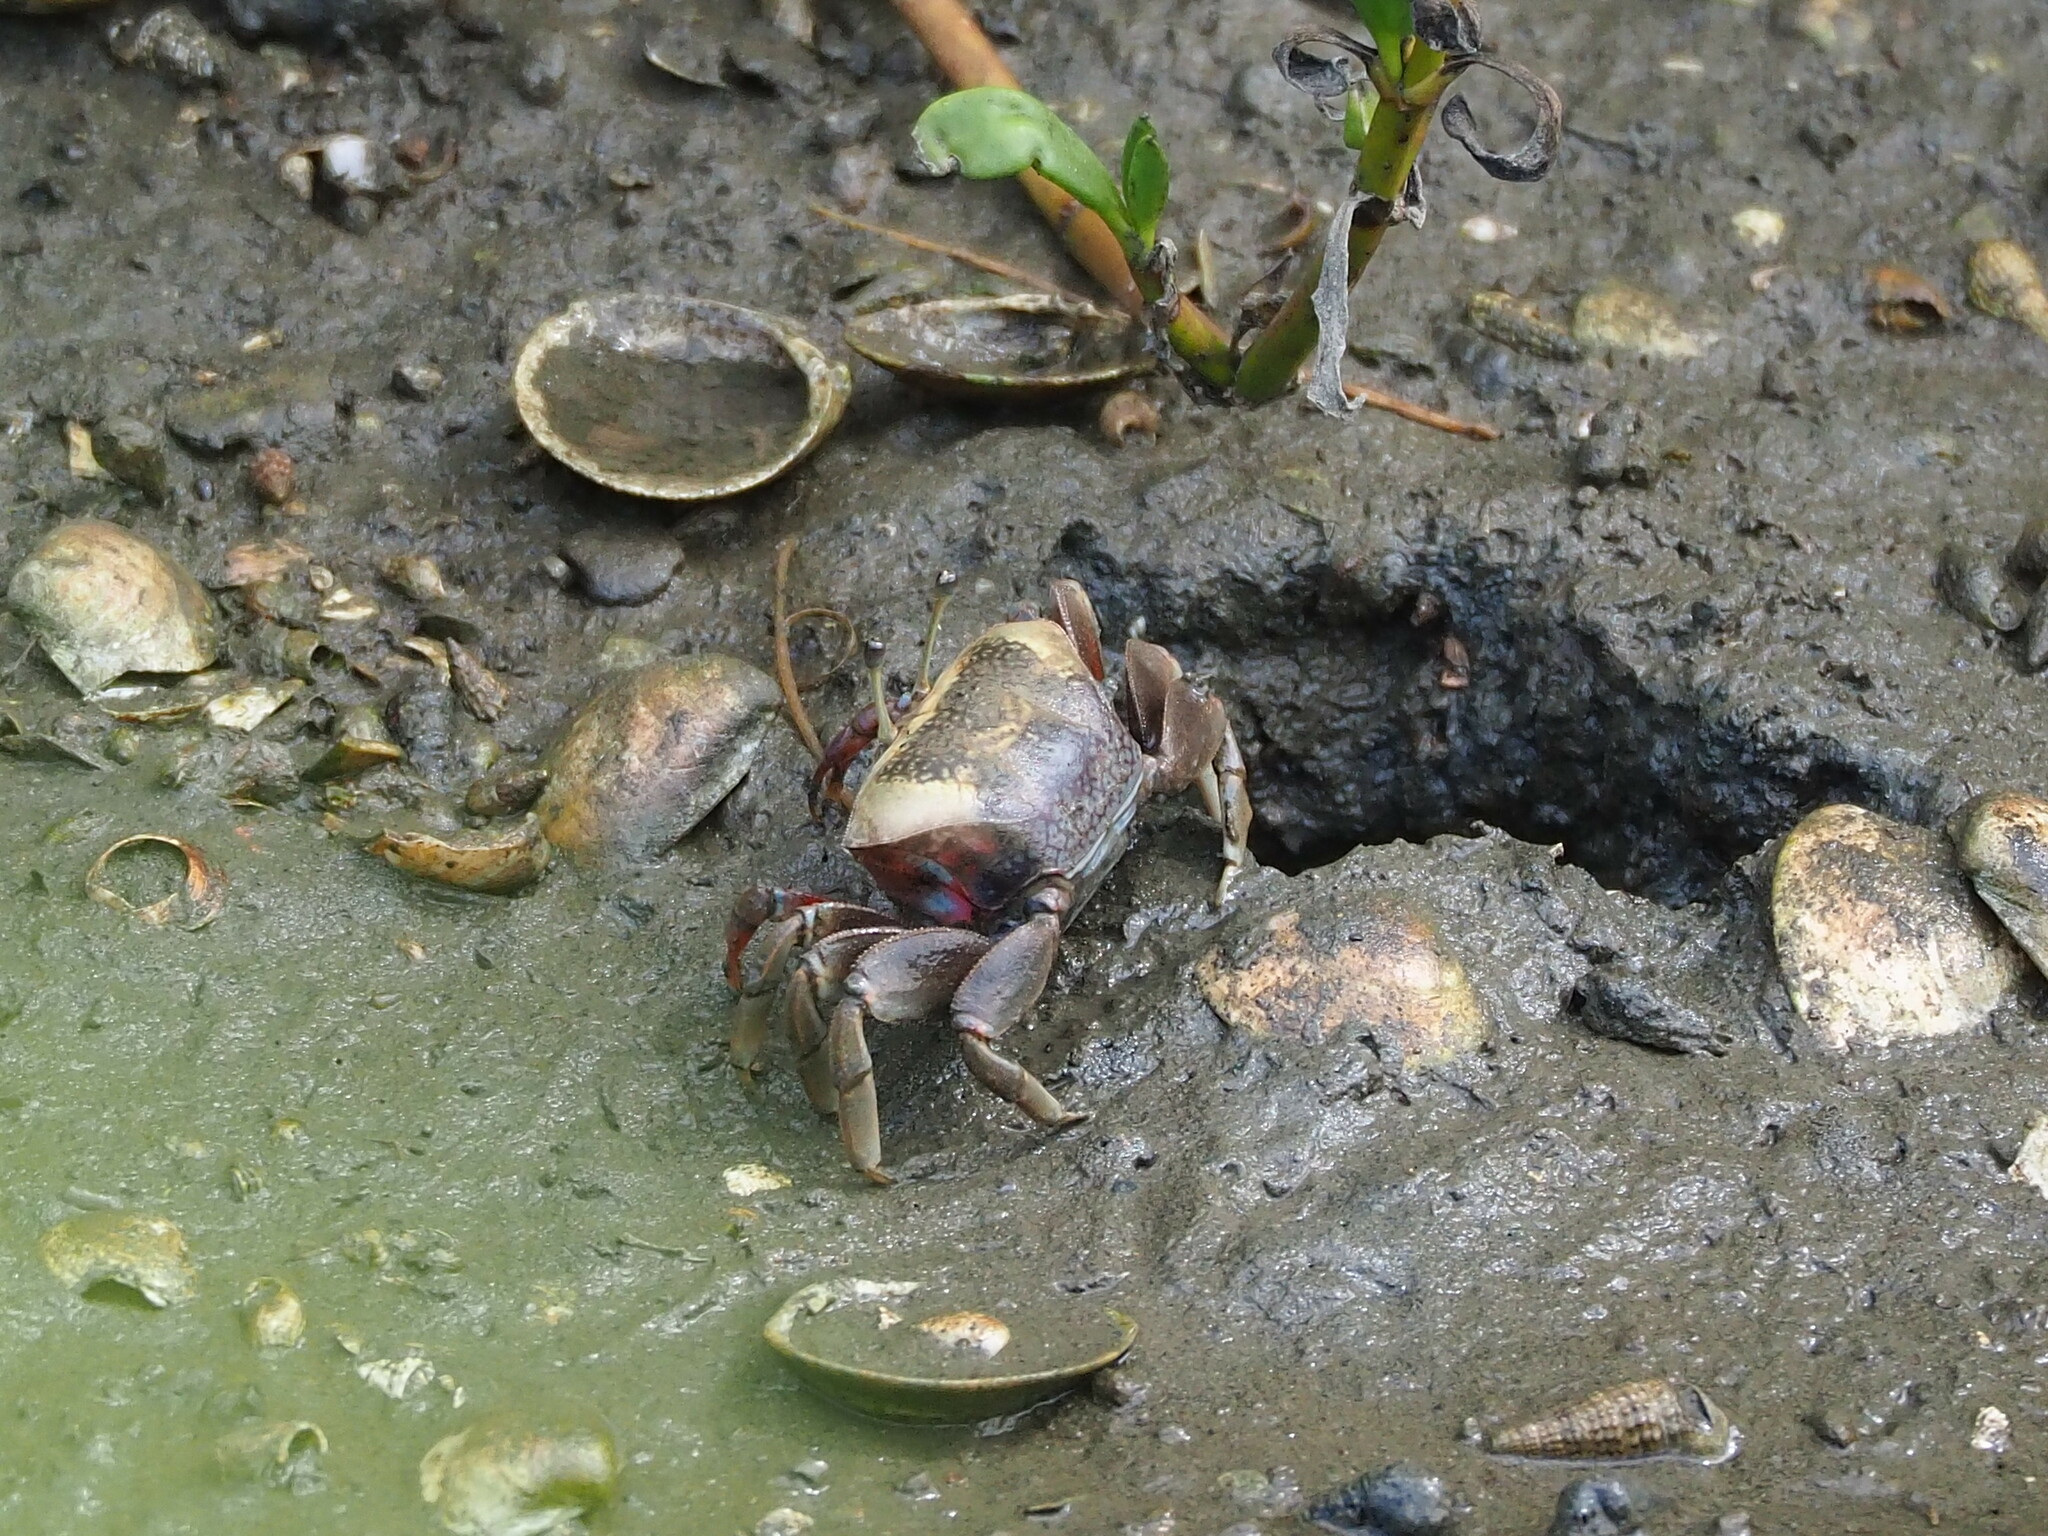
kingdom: Animalia
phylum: Arthropoda
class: Malacostraca
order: Decapoda
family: Ocypodidae
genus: Tubuca
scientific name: Tubuca arcuata
